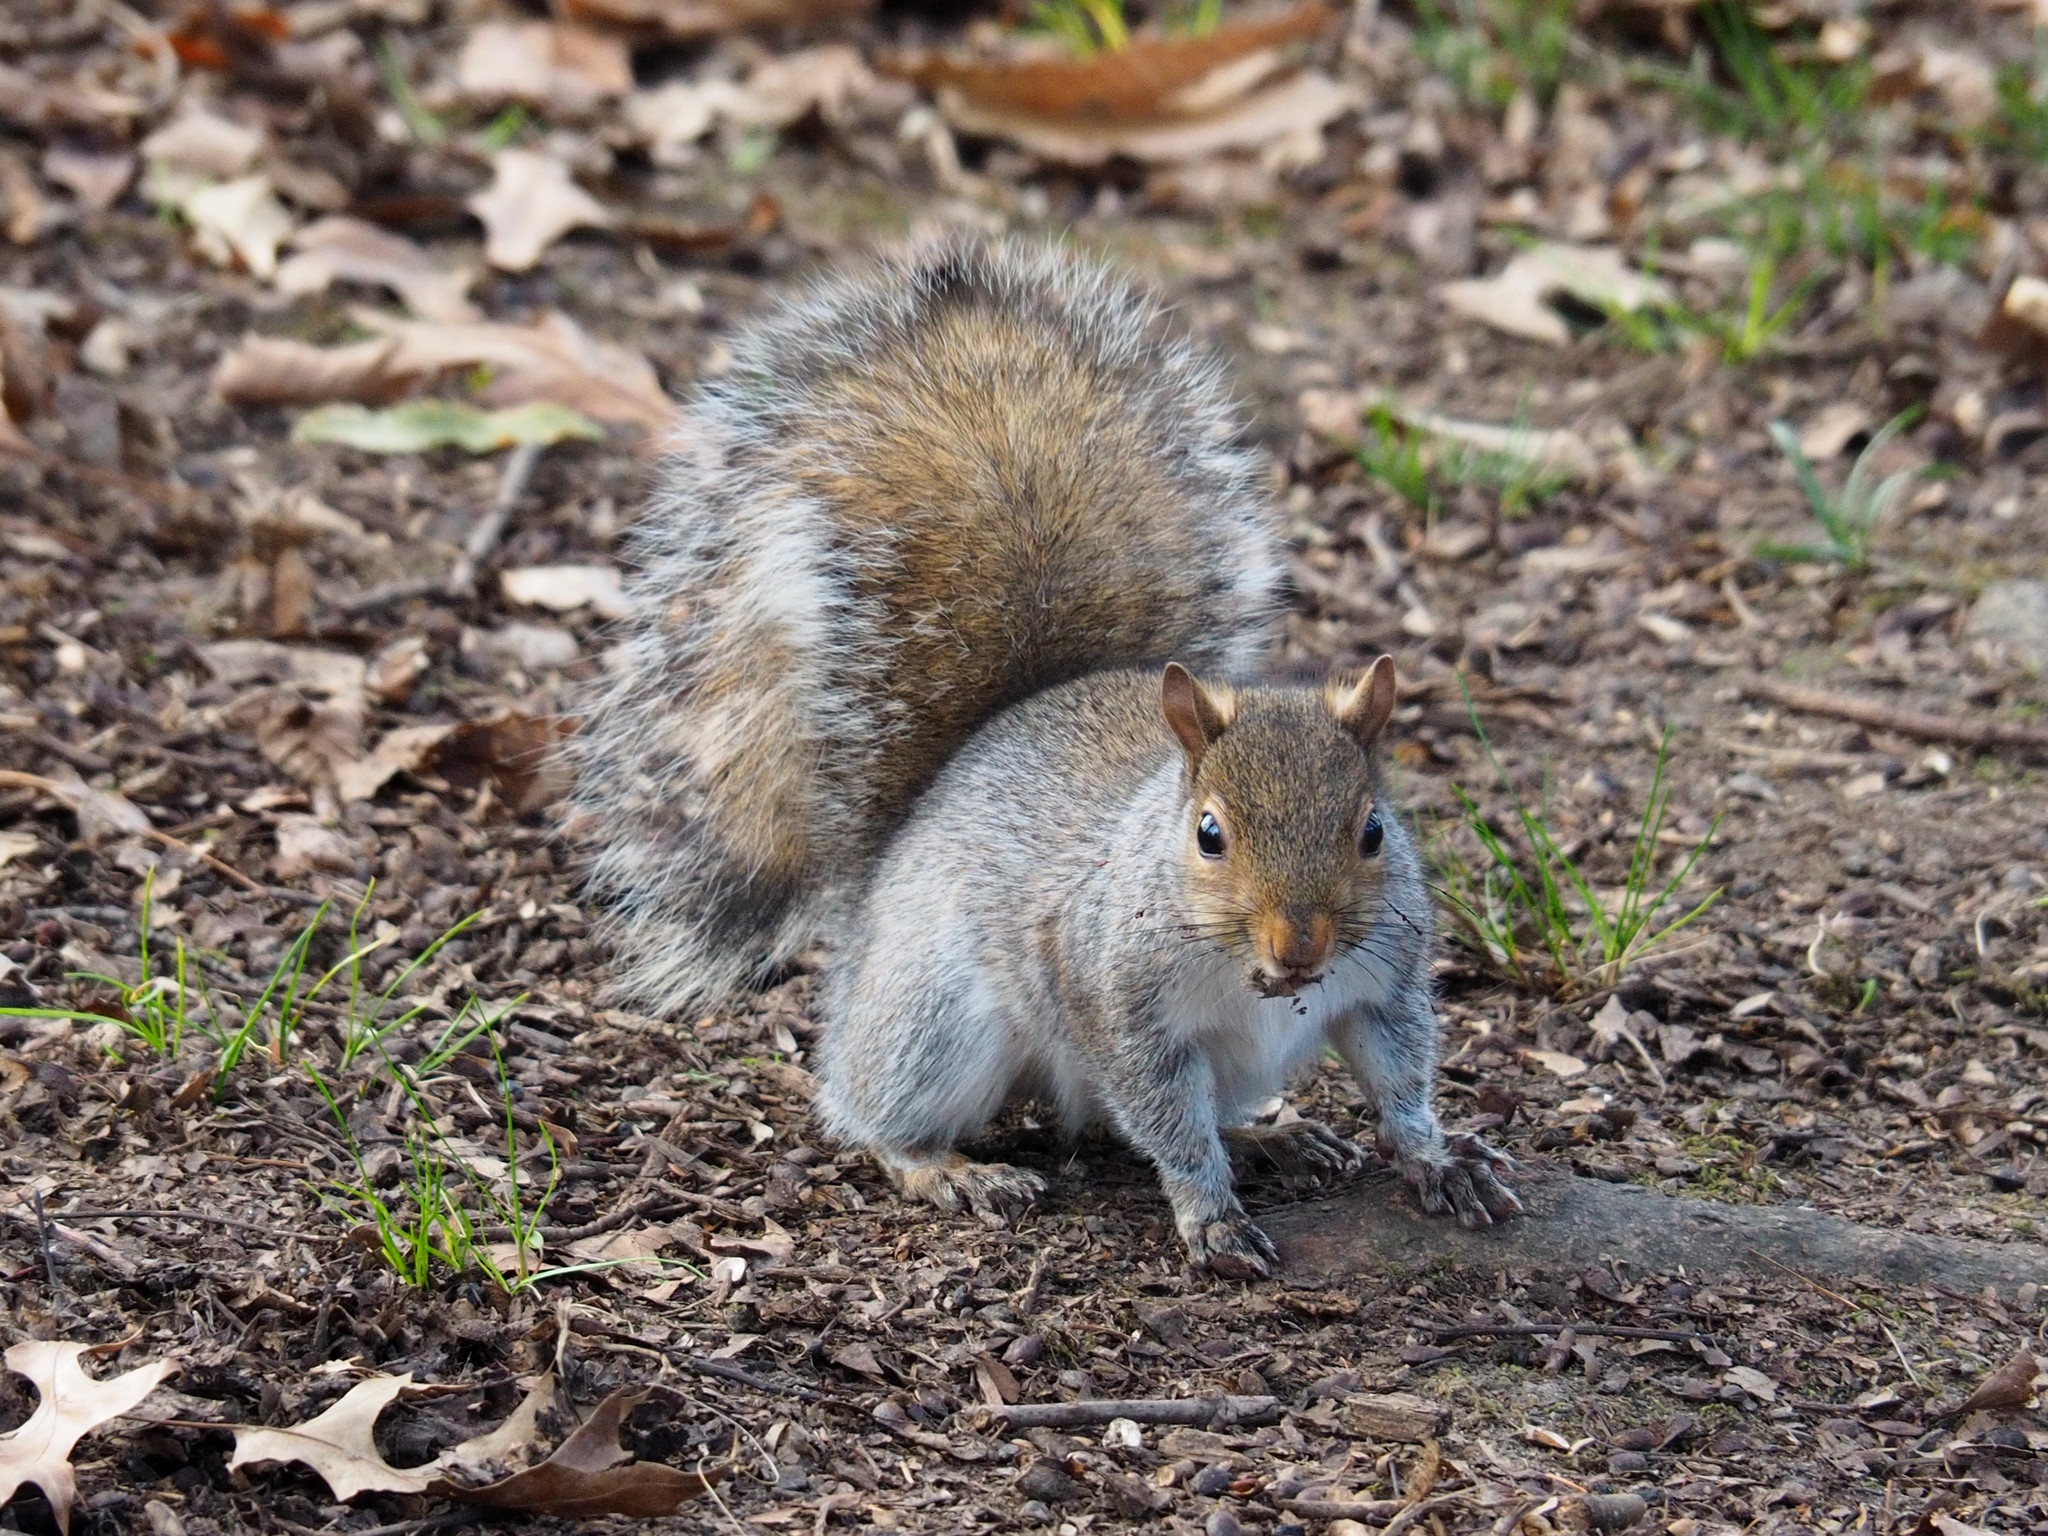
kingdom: Animalia
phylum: Chordata
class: Mammalia
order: Rodentia
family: Sciuridae
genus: Sciurus
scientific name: Sciurus carolinensis
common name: Eastern gray squirrel
